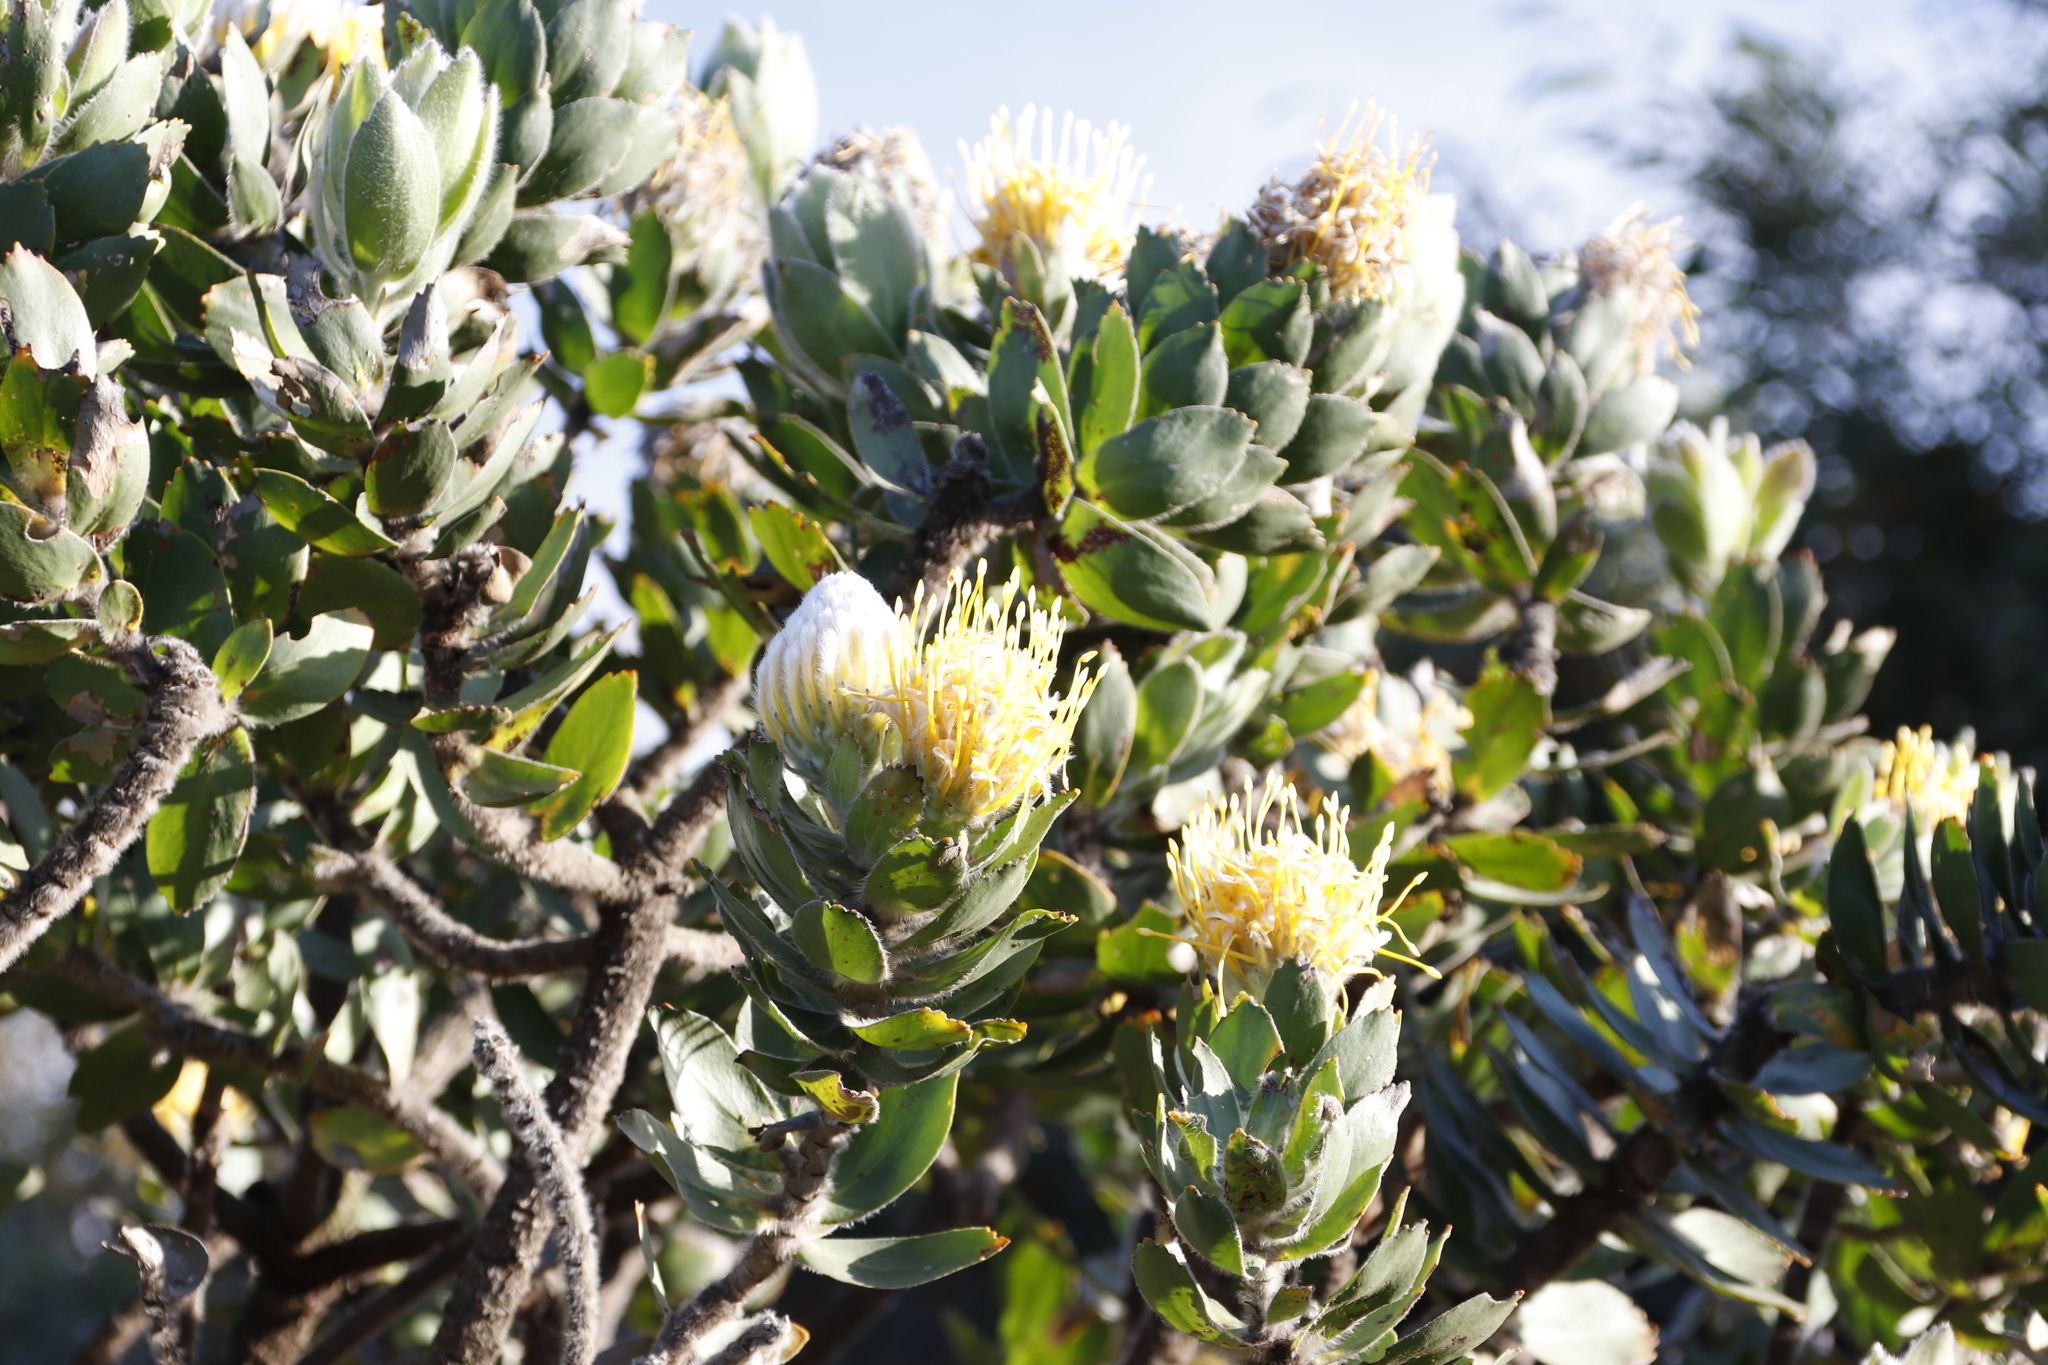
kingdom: Plantae
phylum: Tracheophyta
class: Magnoliopsida
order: Proteales
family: Proteaceae
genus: Leucospermum
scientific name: Leucospermum conocarpodendron
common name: Tree pincushion
